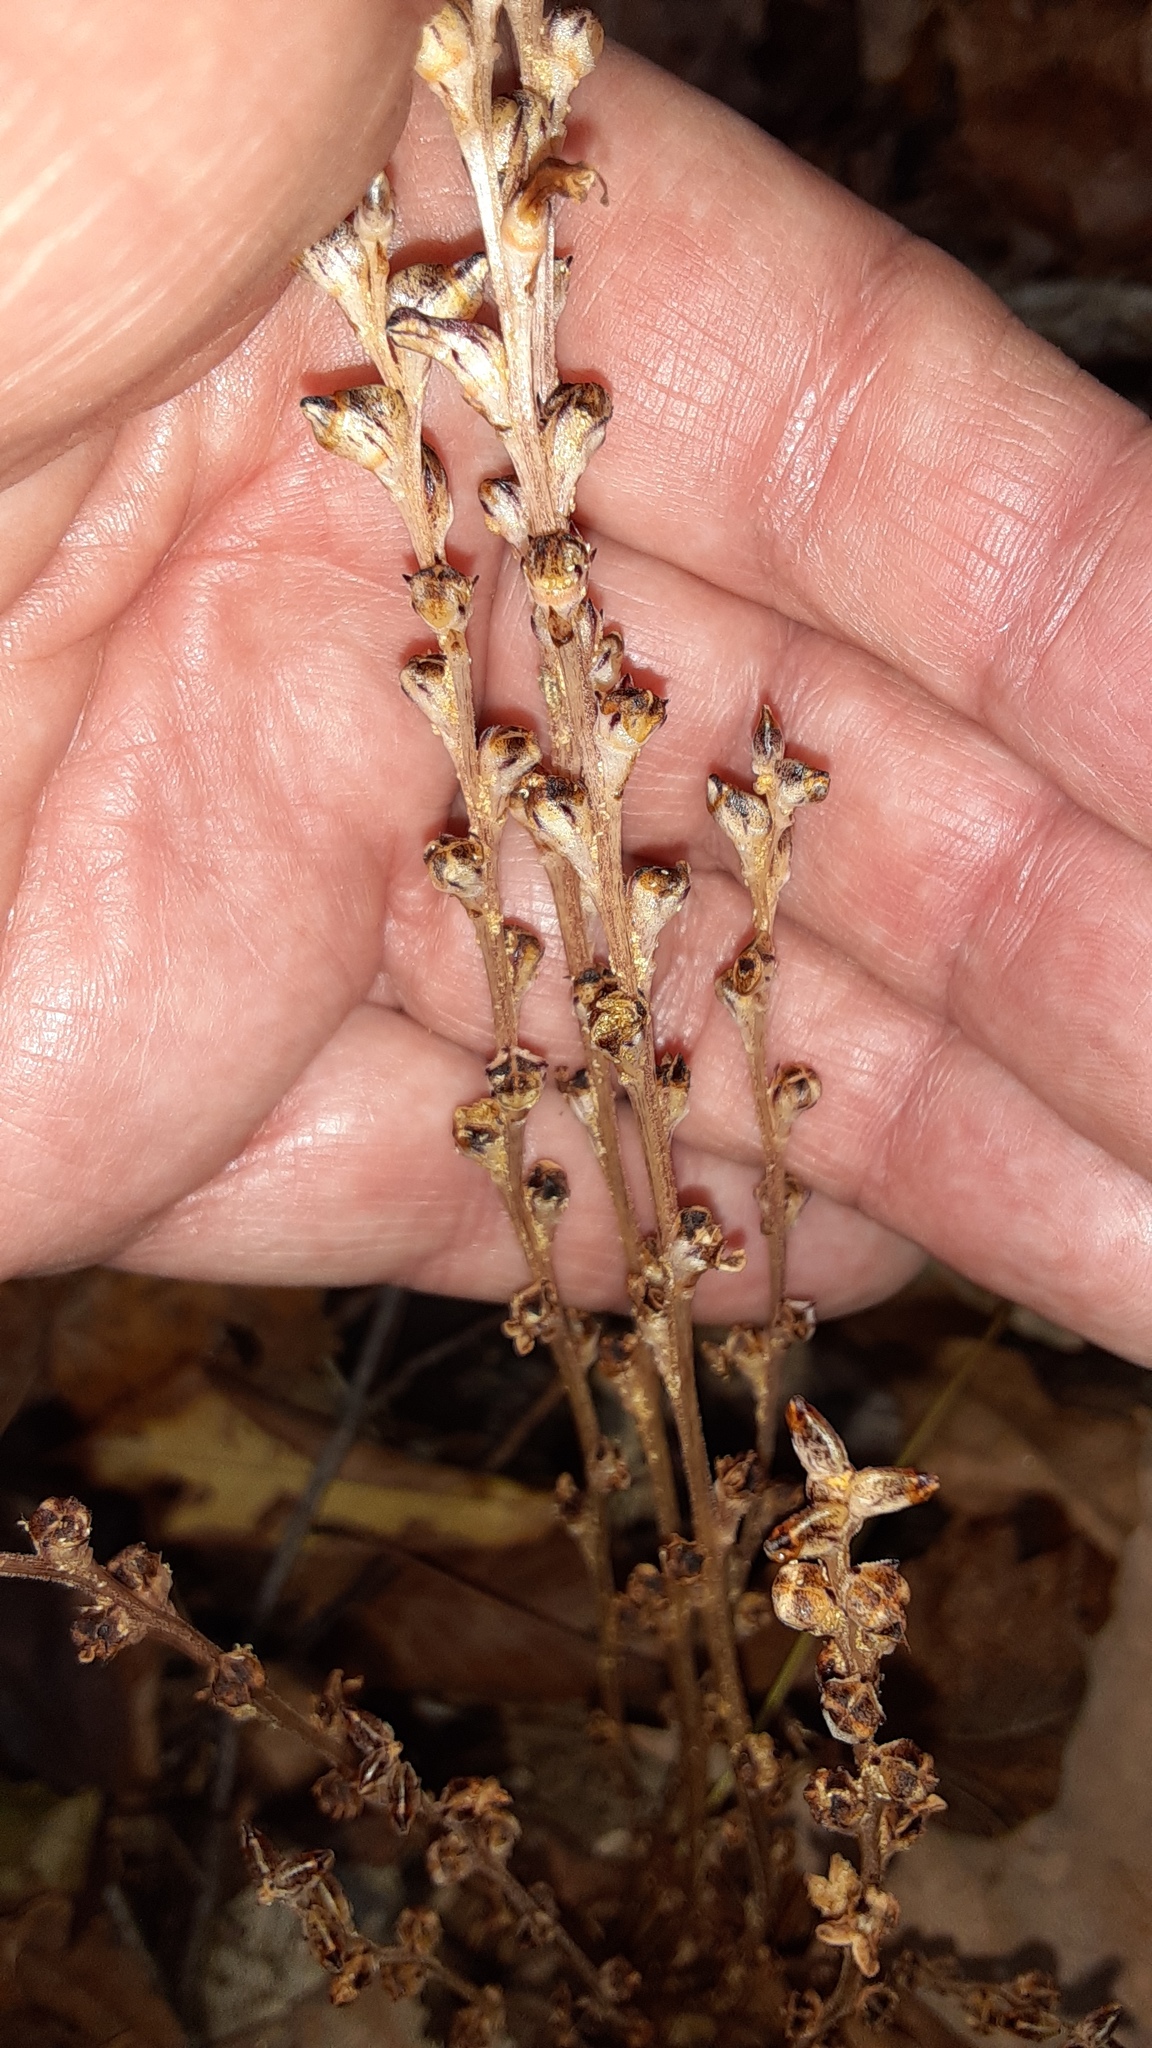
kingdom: Plantae
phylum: Tracheophyta
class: Magnoliopsida
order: Lamiales
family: Orobanchaceae
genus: Epifagus
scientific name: Epifagus virginiana
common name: Beechdrops
